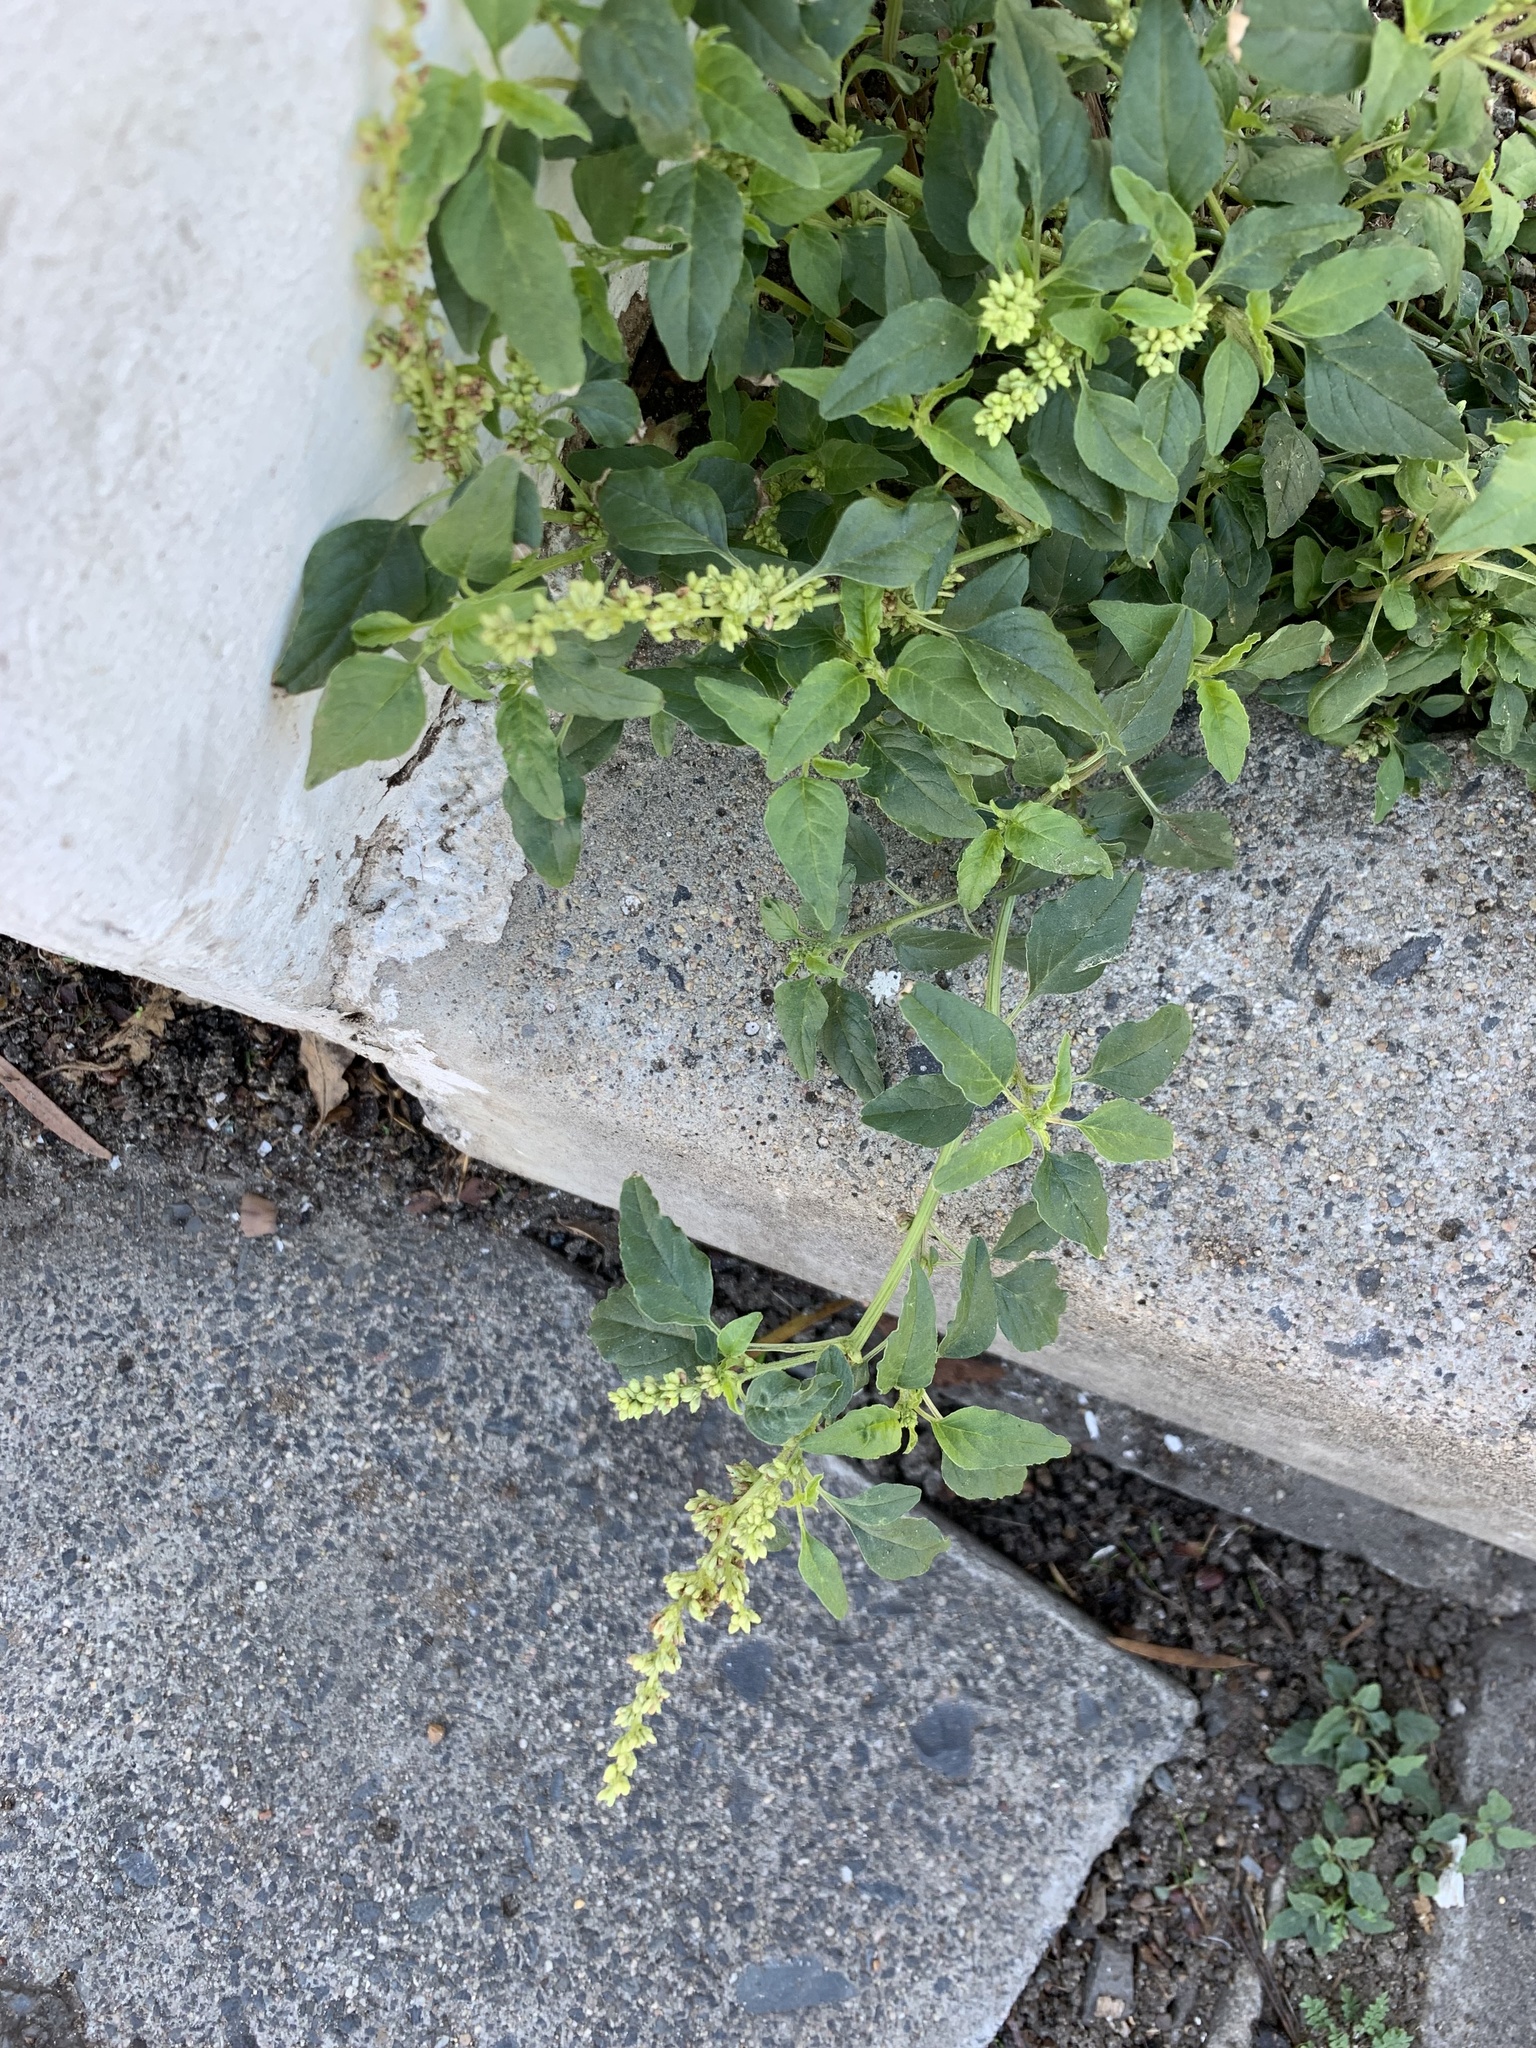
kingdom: Plantae
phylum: Tracheophyta
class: Magnoliopsida
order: Caryophyllales
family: Amaranthaceae
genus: Amaranthus
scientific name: Amaranthus deflexus
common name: Perennial pigweed
